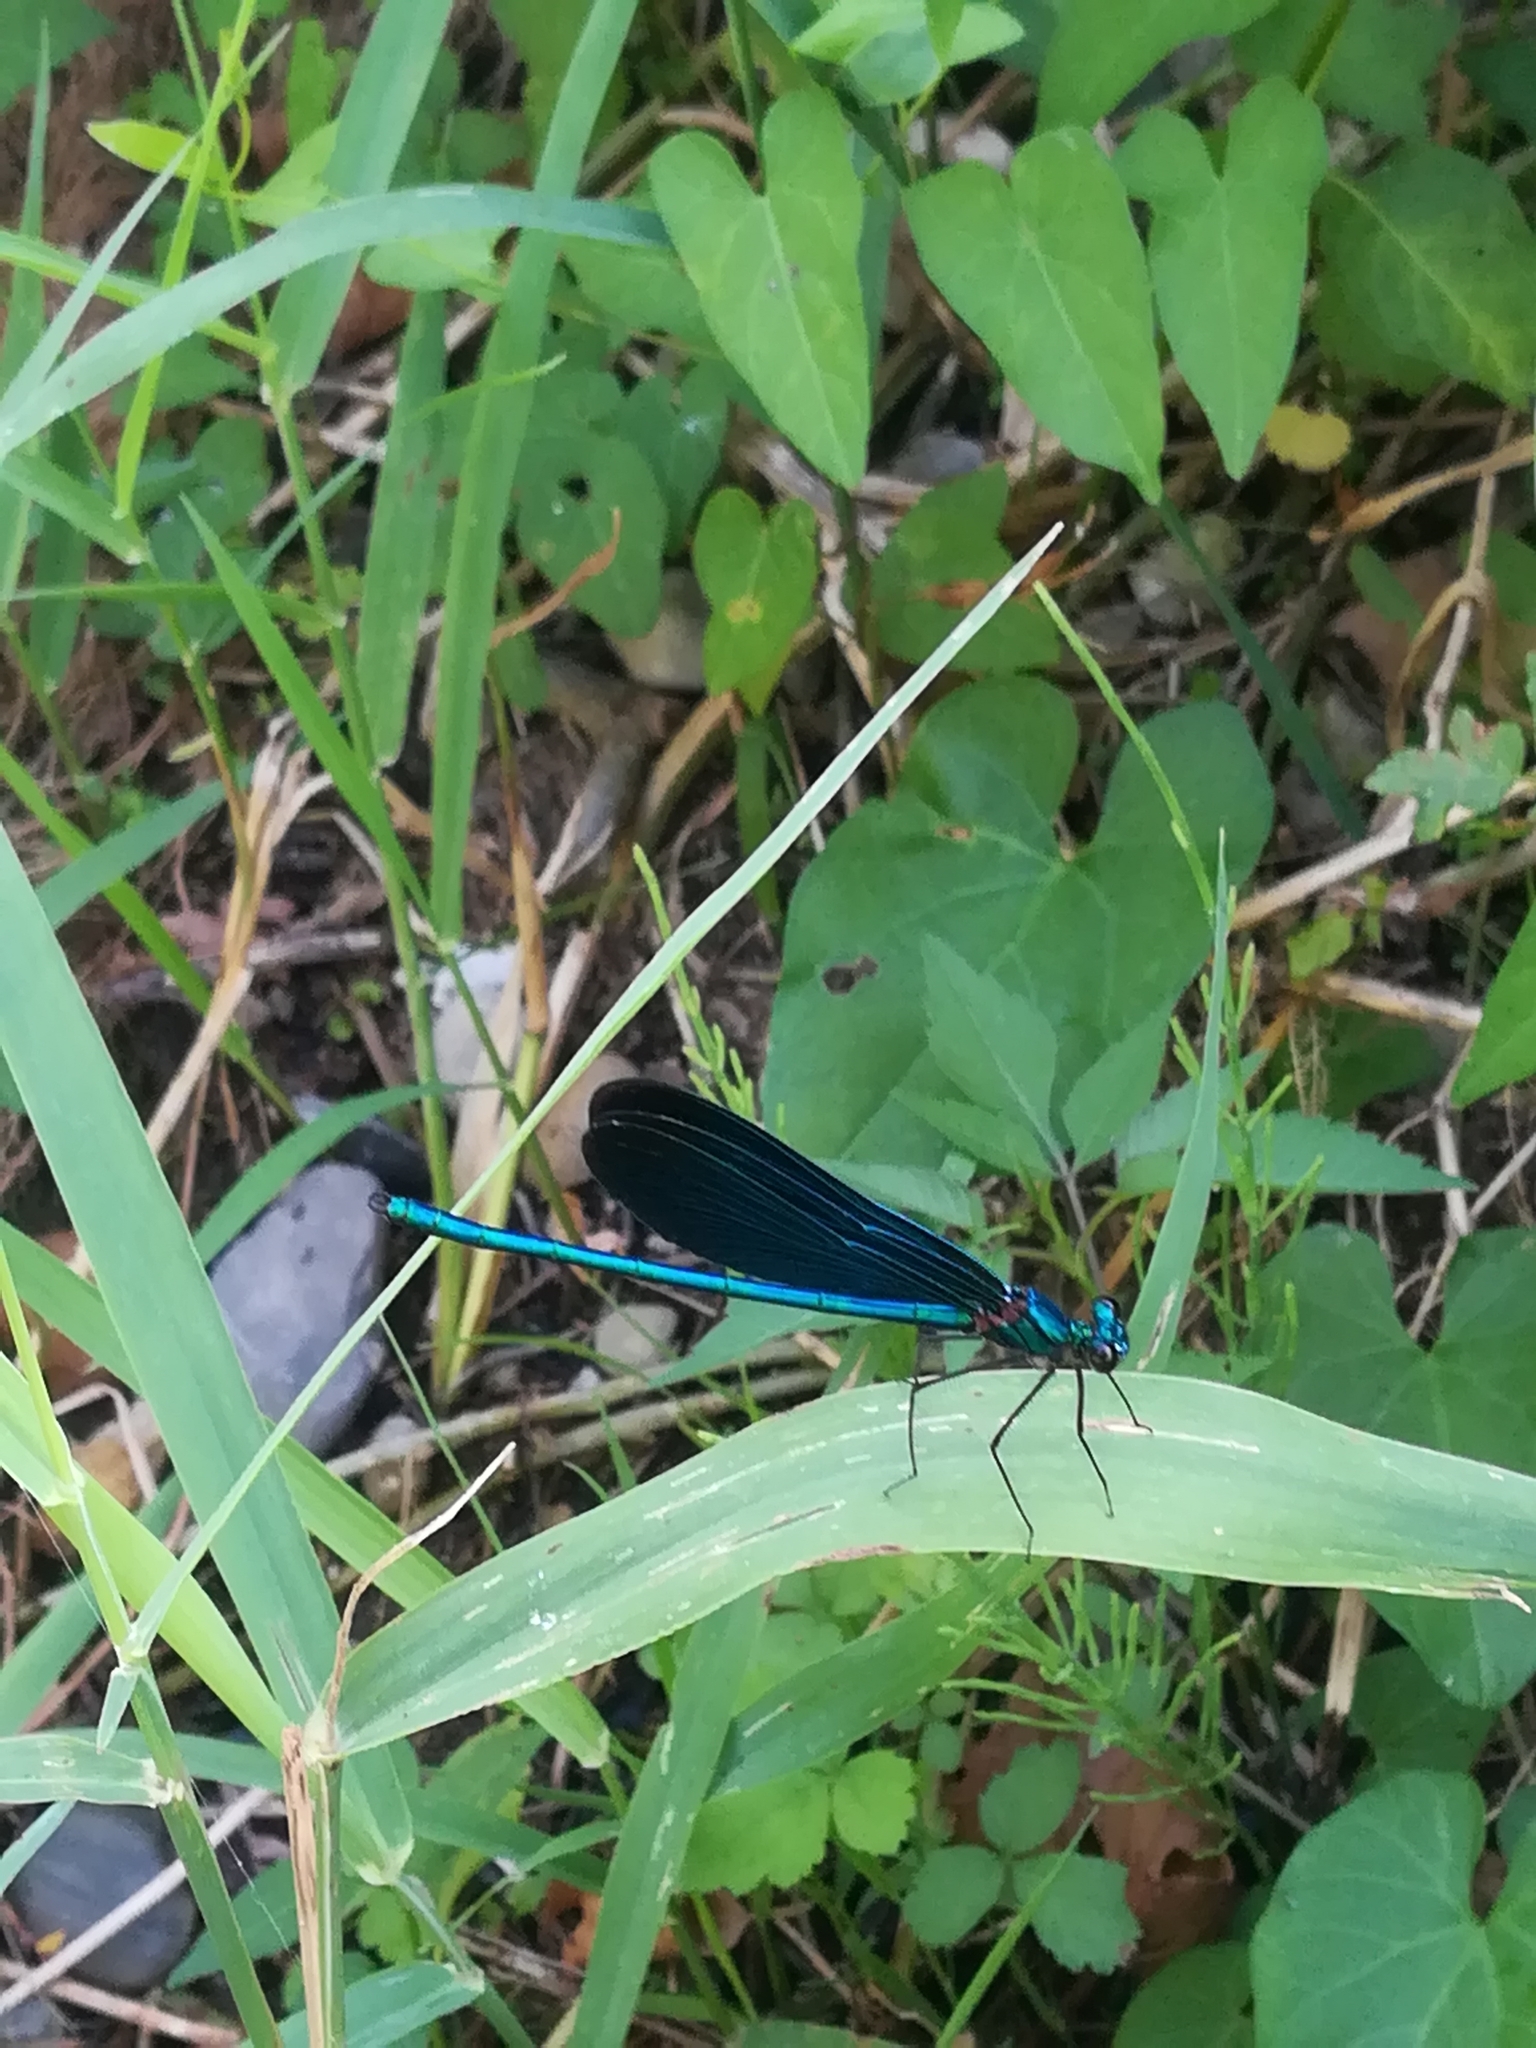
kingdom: Animalia
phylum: Arthropoda
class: Insecta
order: Odonata
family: Calopterygidae
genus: Calopteryx
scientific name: Calopteryx virgo
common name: Beautiful demoiselle
